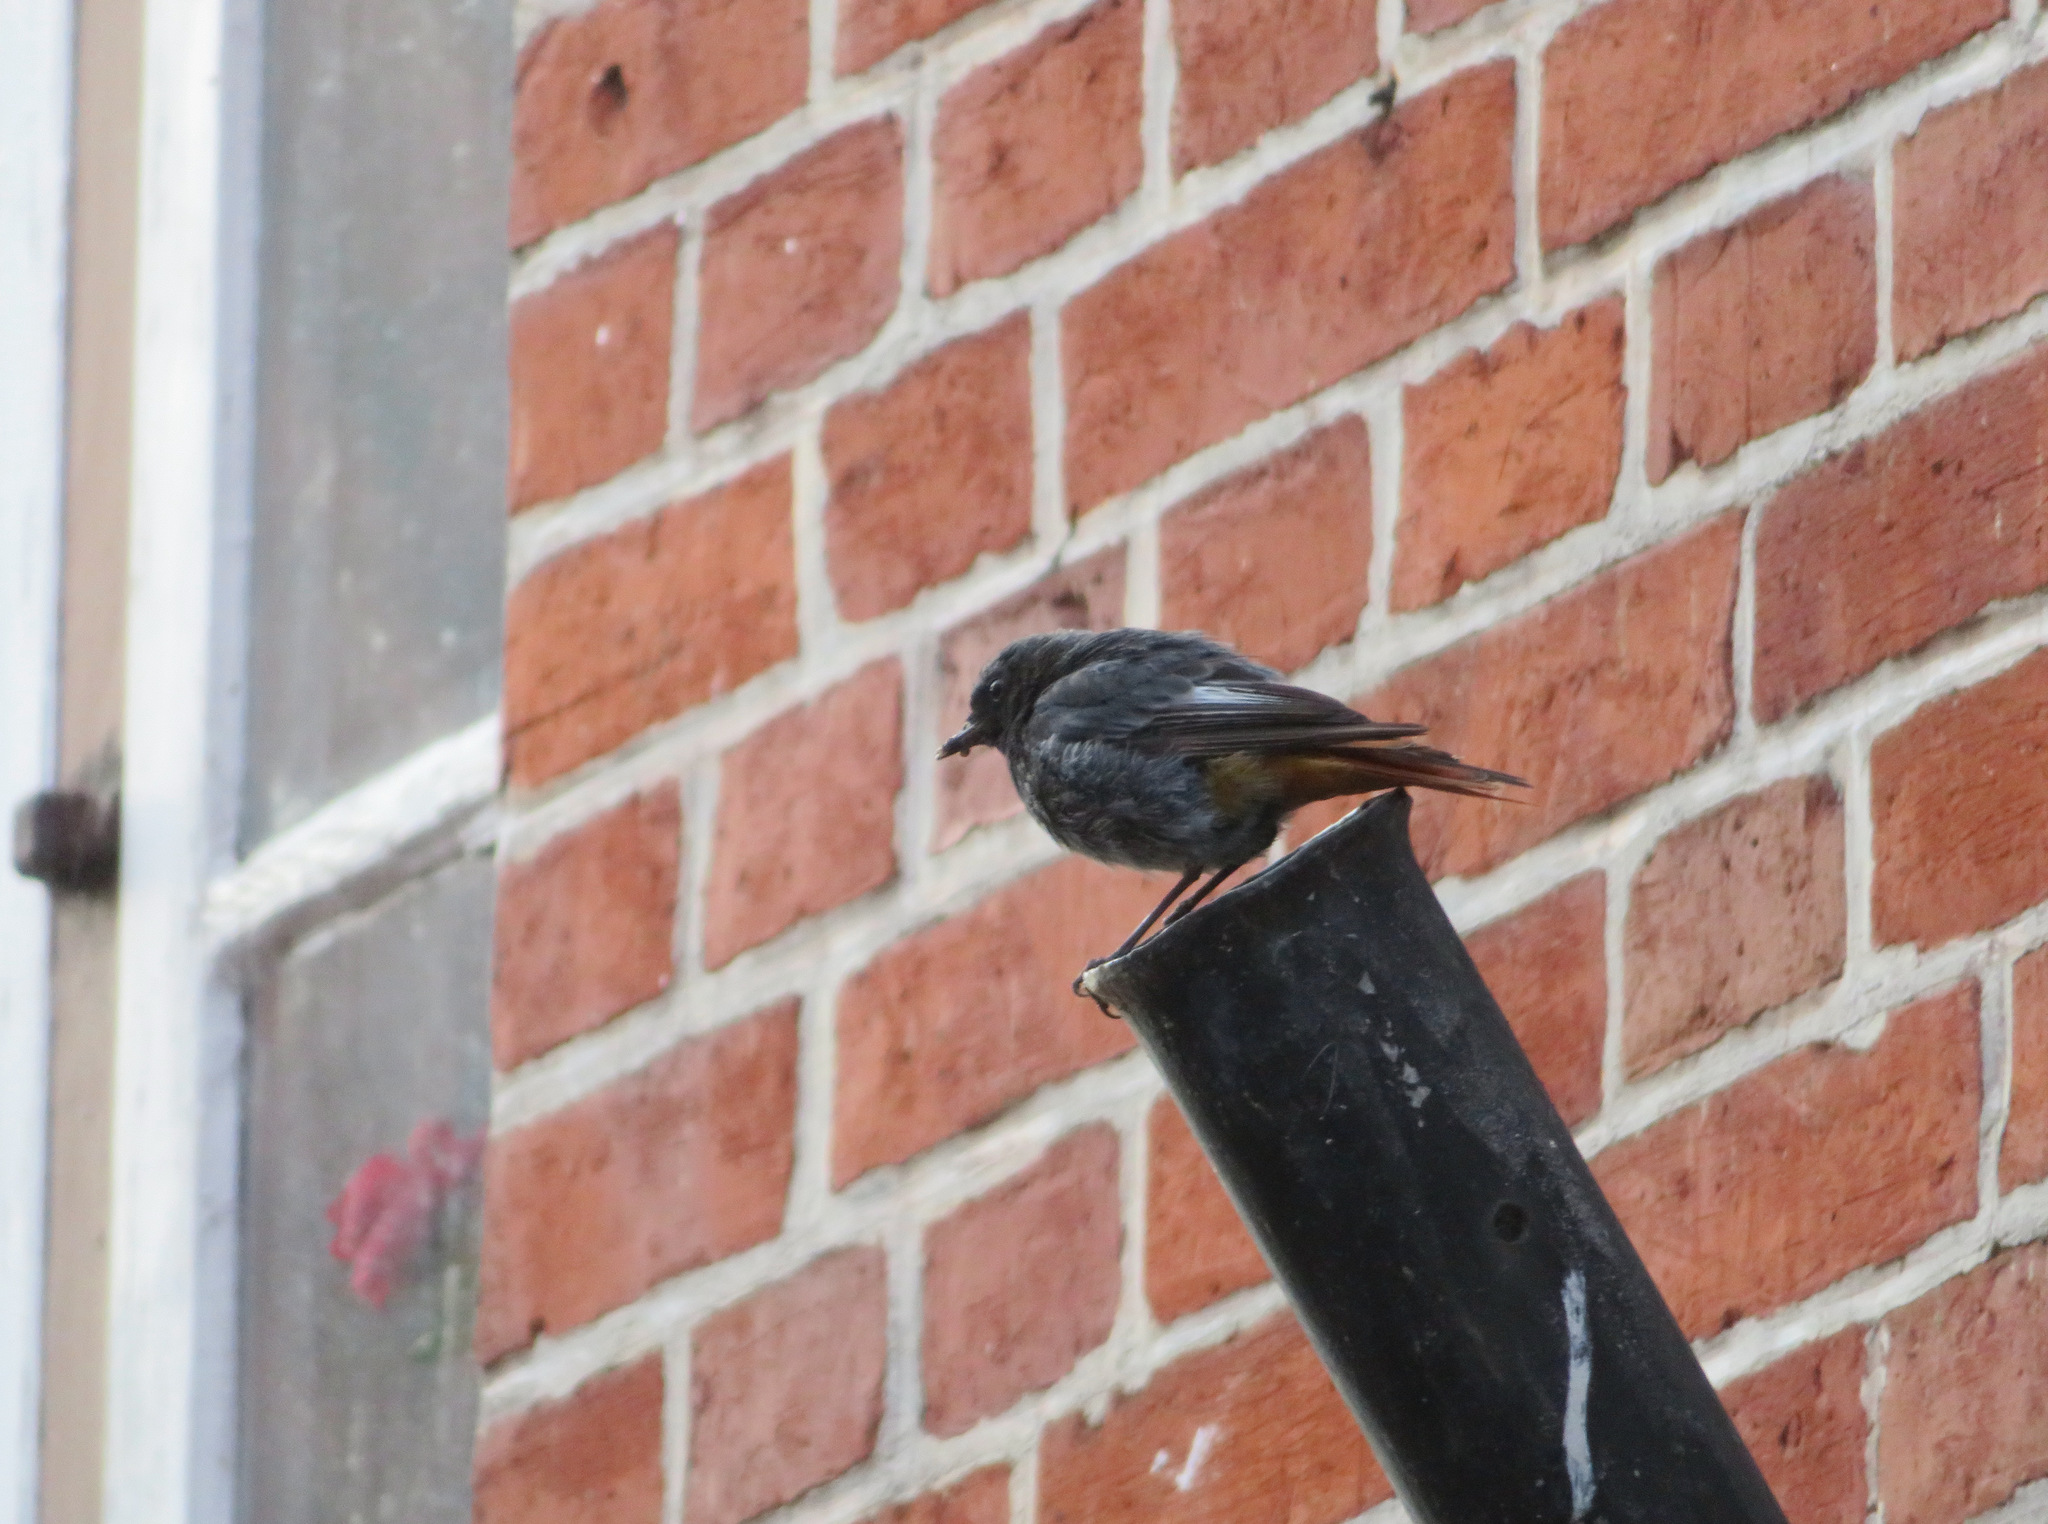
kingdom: Animalia
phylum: Chordata
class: Aves
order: Passeriformes
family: Muscicapidae
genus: Phoenicurus
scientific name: Phoenicurus ochruros
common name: Black redstart
